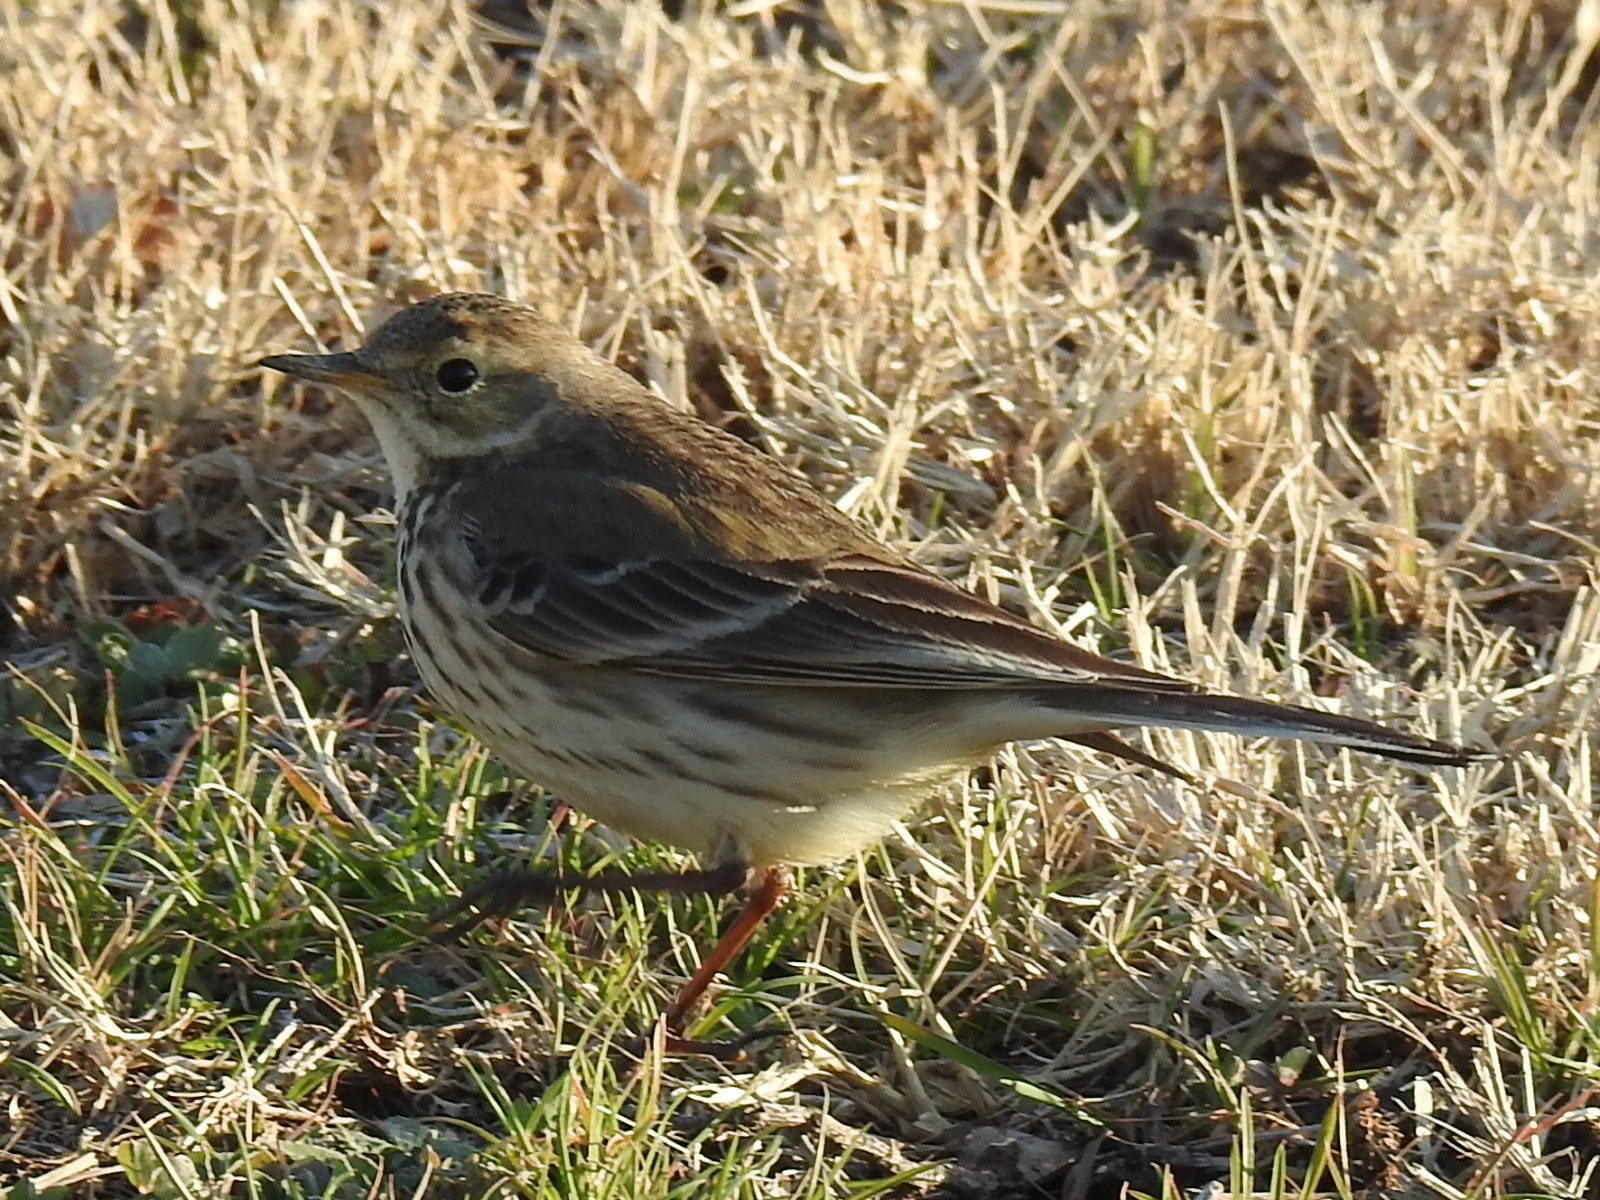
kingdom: Animalia
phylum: Chordata
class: Aves
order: Passeriformes
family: Motacillidae
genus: Anthus
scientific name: Anthus rubescens
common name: Buff-bellied pipit
